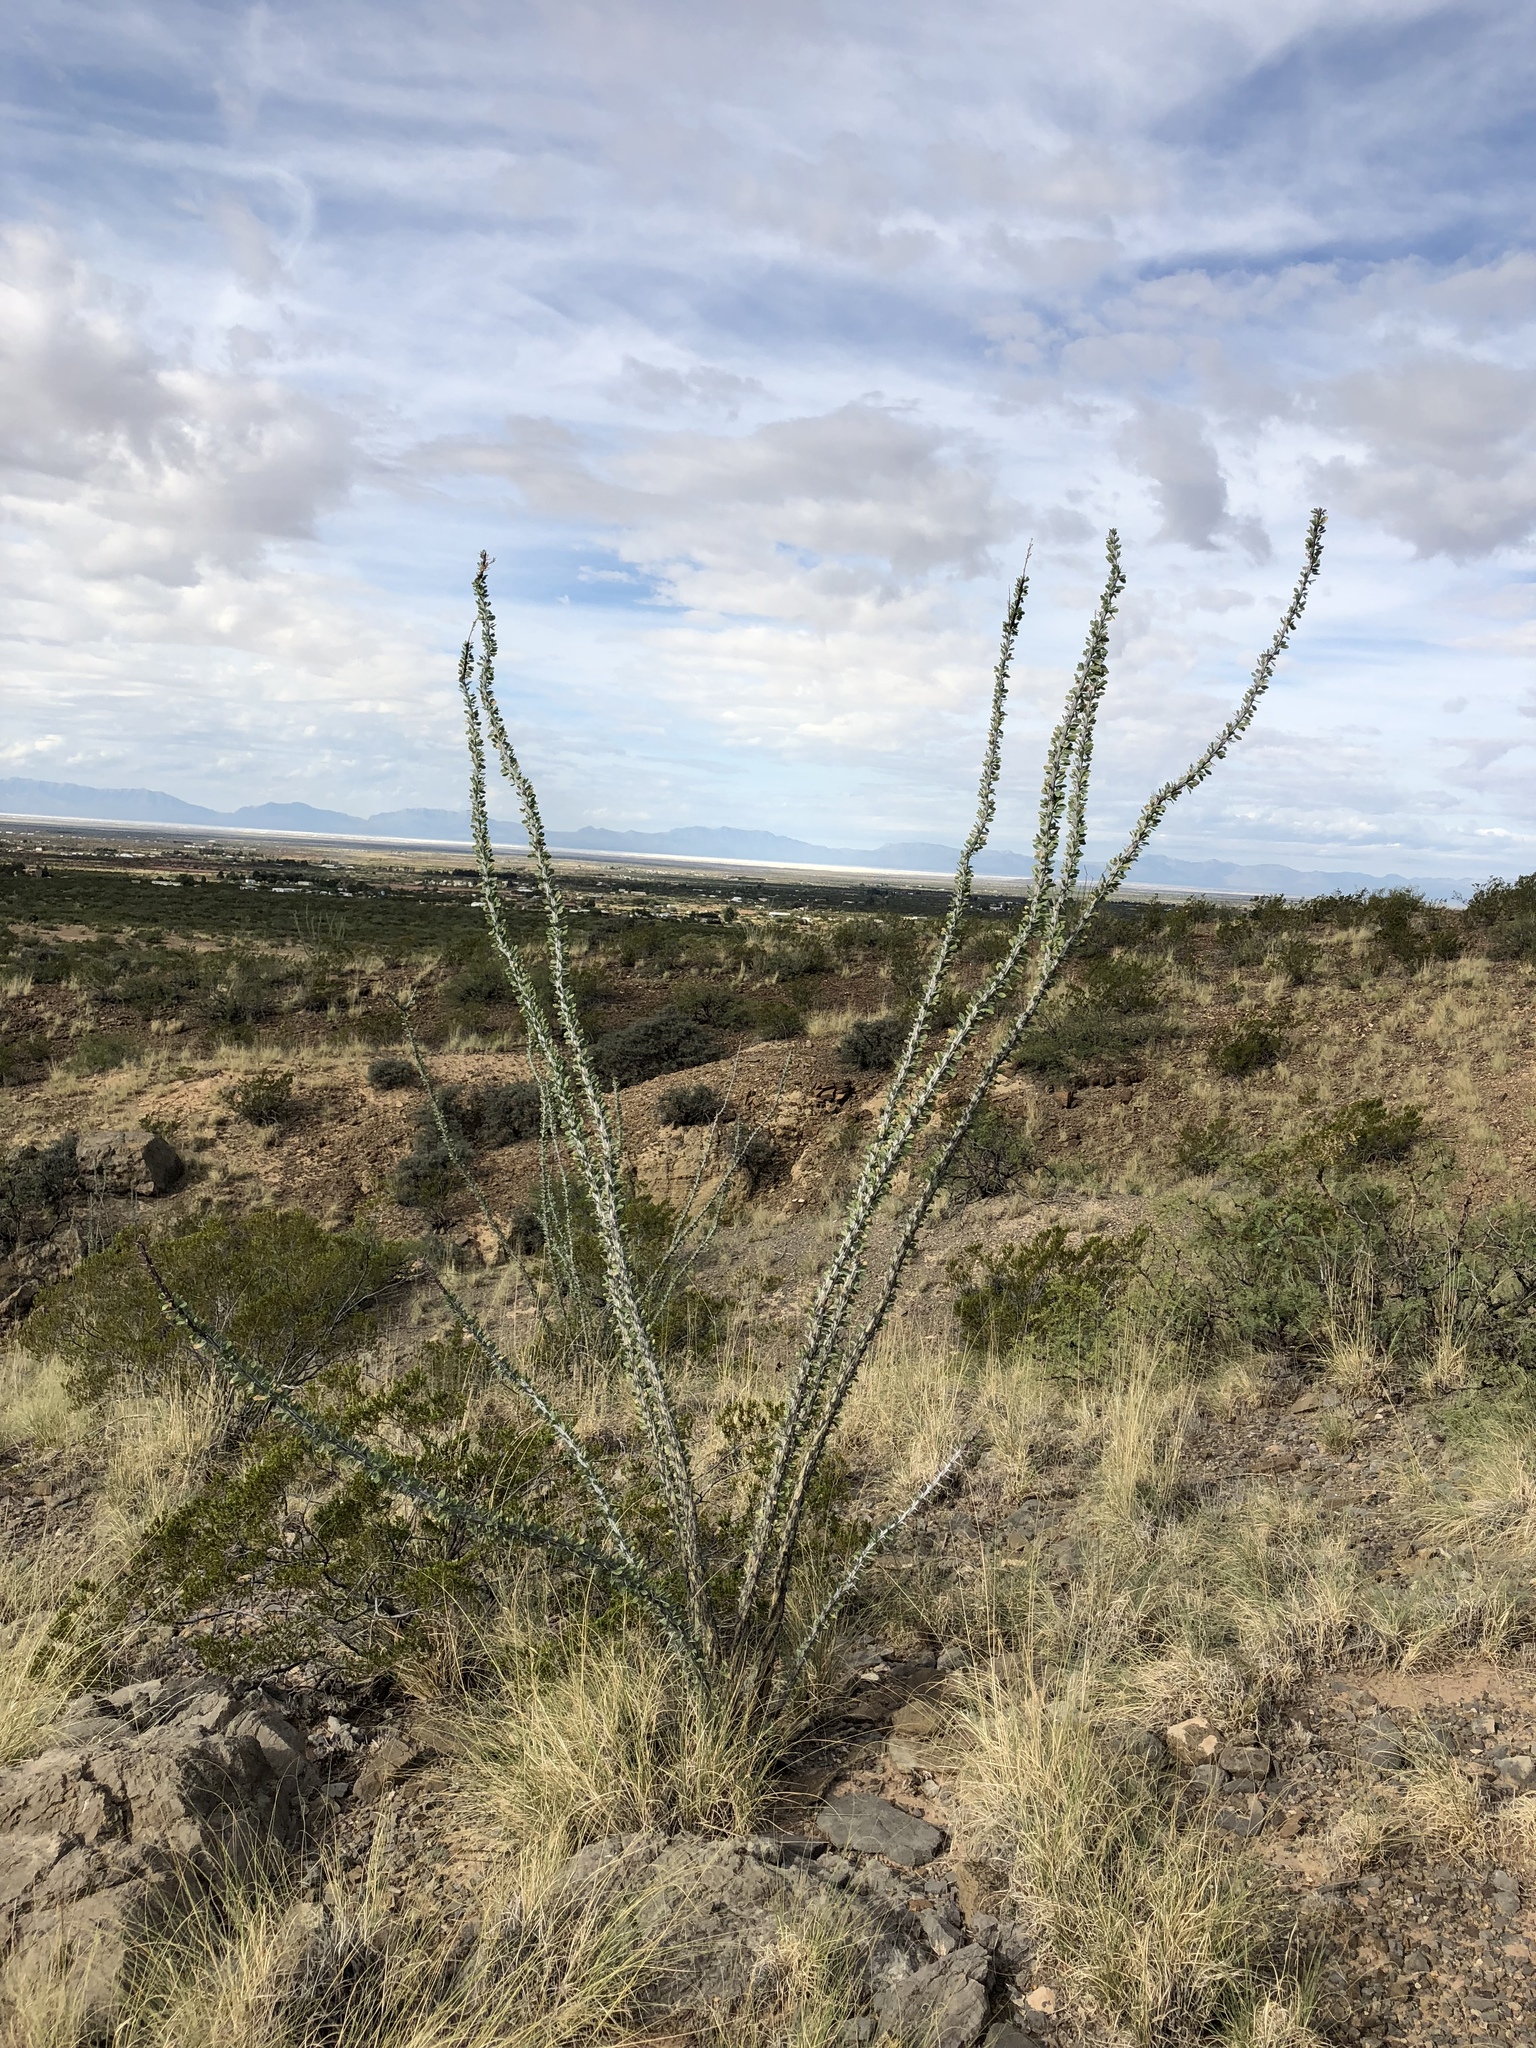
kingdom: Plantae
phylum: Tracheophyta
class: Magnoliopsida
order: Ericales
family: Fouquieriaceae
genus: Fouquieria
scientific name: Fouquieria splendens
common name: Vine-cactus
